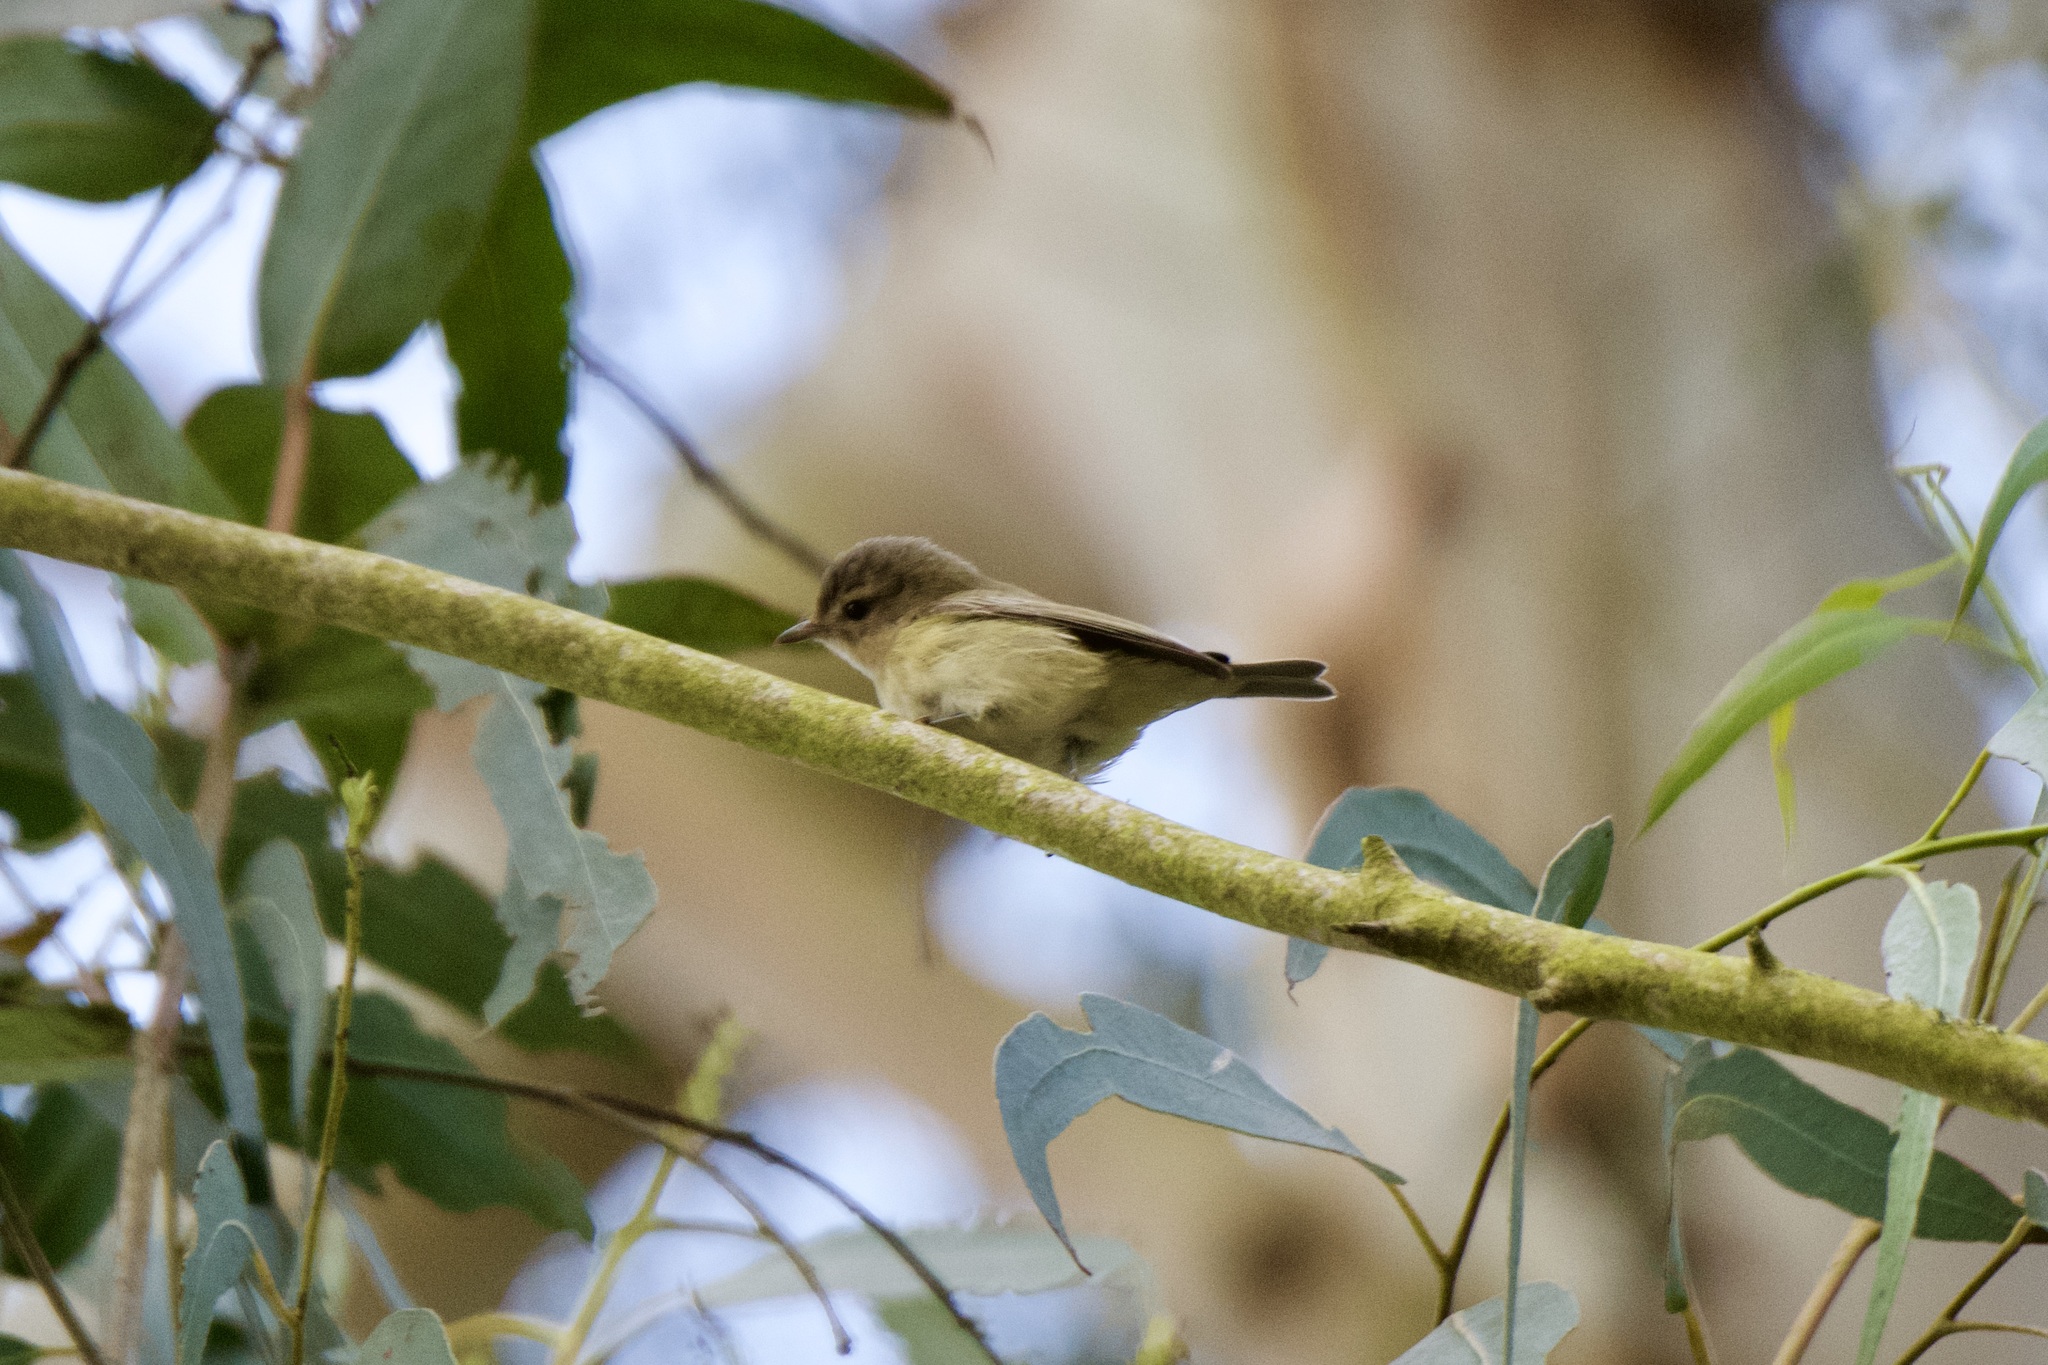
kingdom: Animalia
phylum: Chordata
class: Aves
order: Passeriformes
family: Vireonidae
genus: Vireo
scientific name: Vireo gilvus
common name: Warbling vireo
